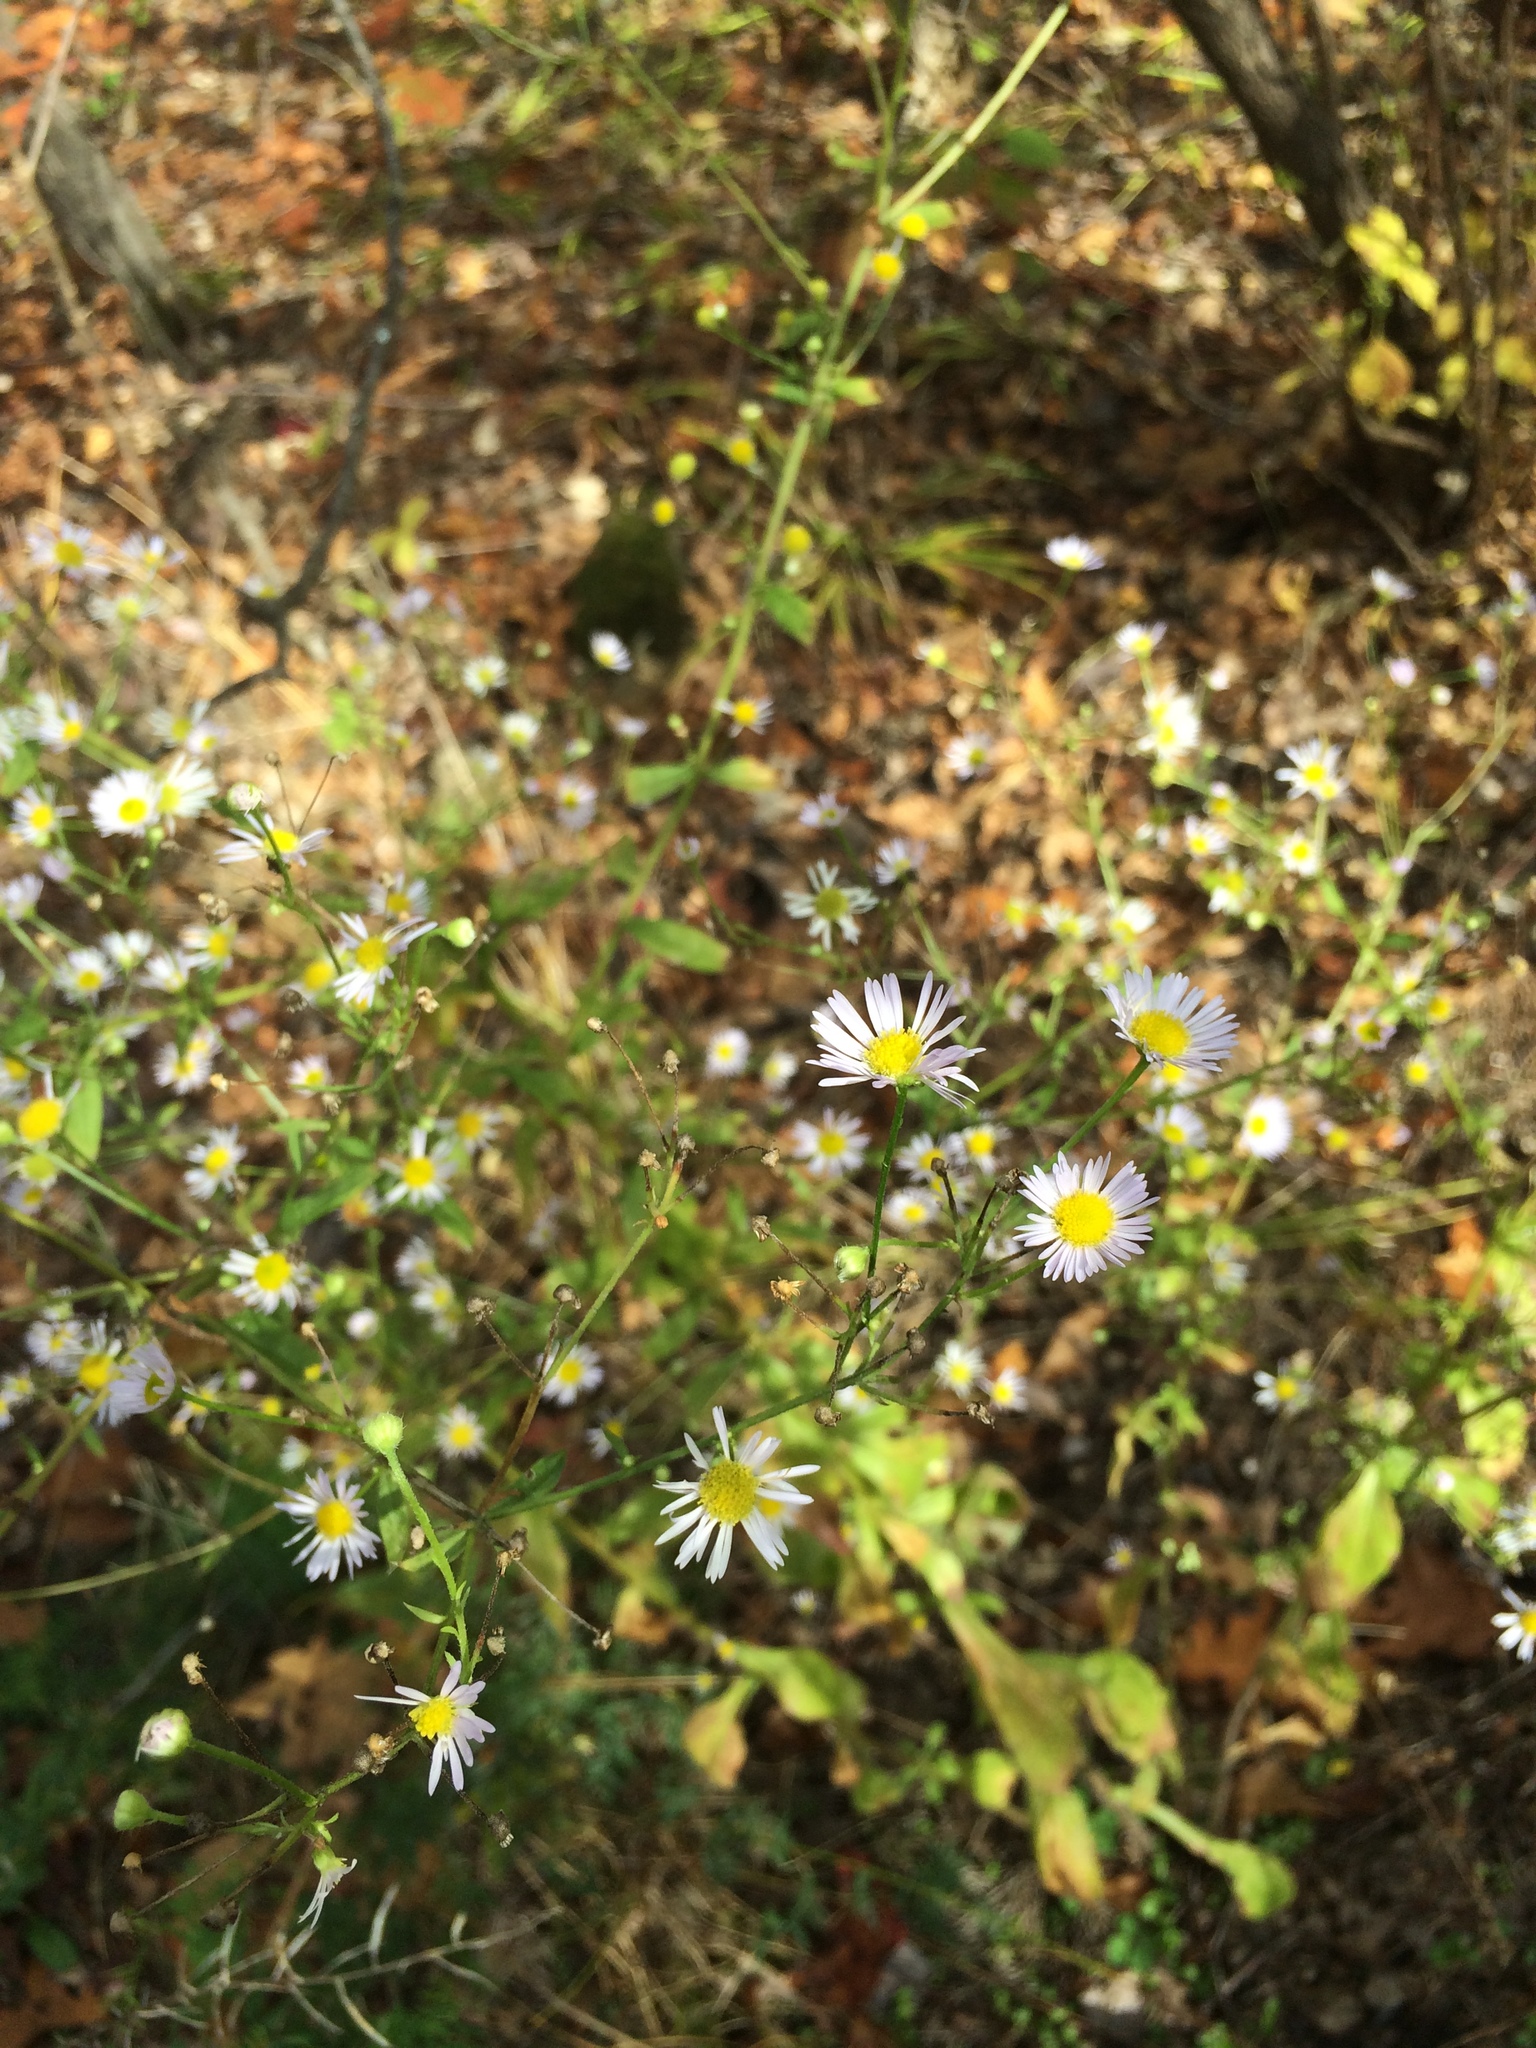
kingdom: Plantae
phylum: Tracheophyta
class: Magnoliopsida
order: Asterales
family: Asteraceae
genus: Erigeron
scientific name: Erigeron annuus
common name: Tall fleabane
